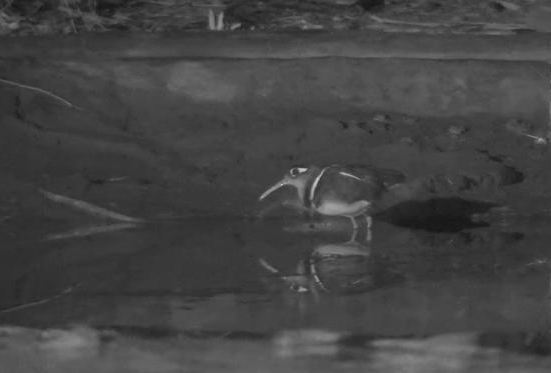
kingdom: Animalia
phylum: Chordata
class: Aves
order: Charadriiformes
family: Rostratulidae
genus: Rostratula
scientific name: Rostratula benghalensis
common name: Greater painted-snipe
